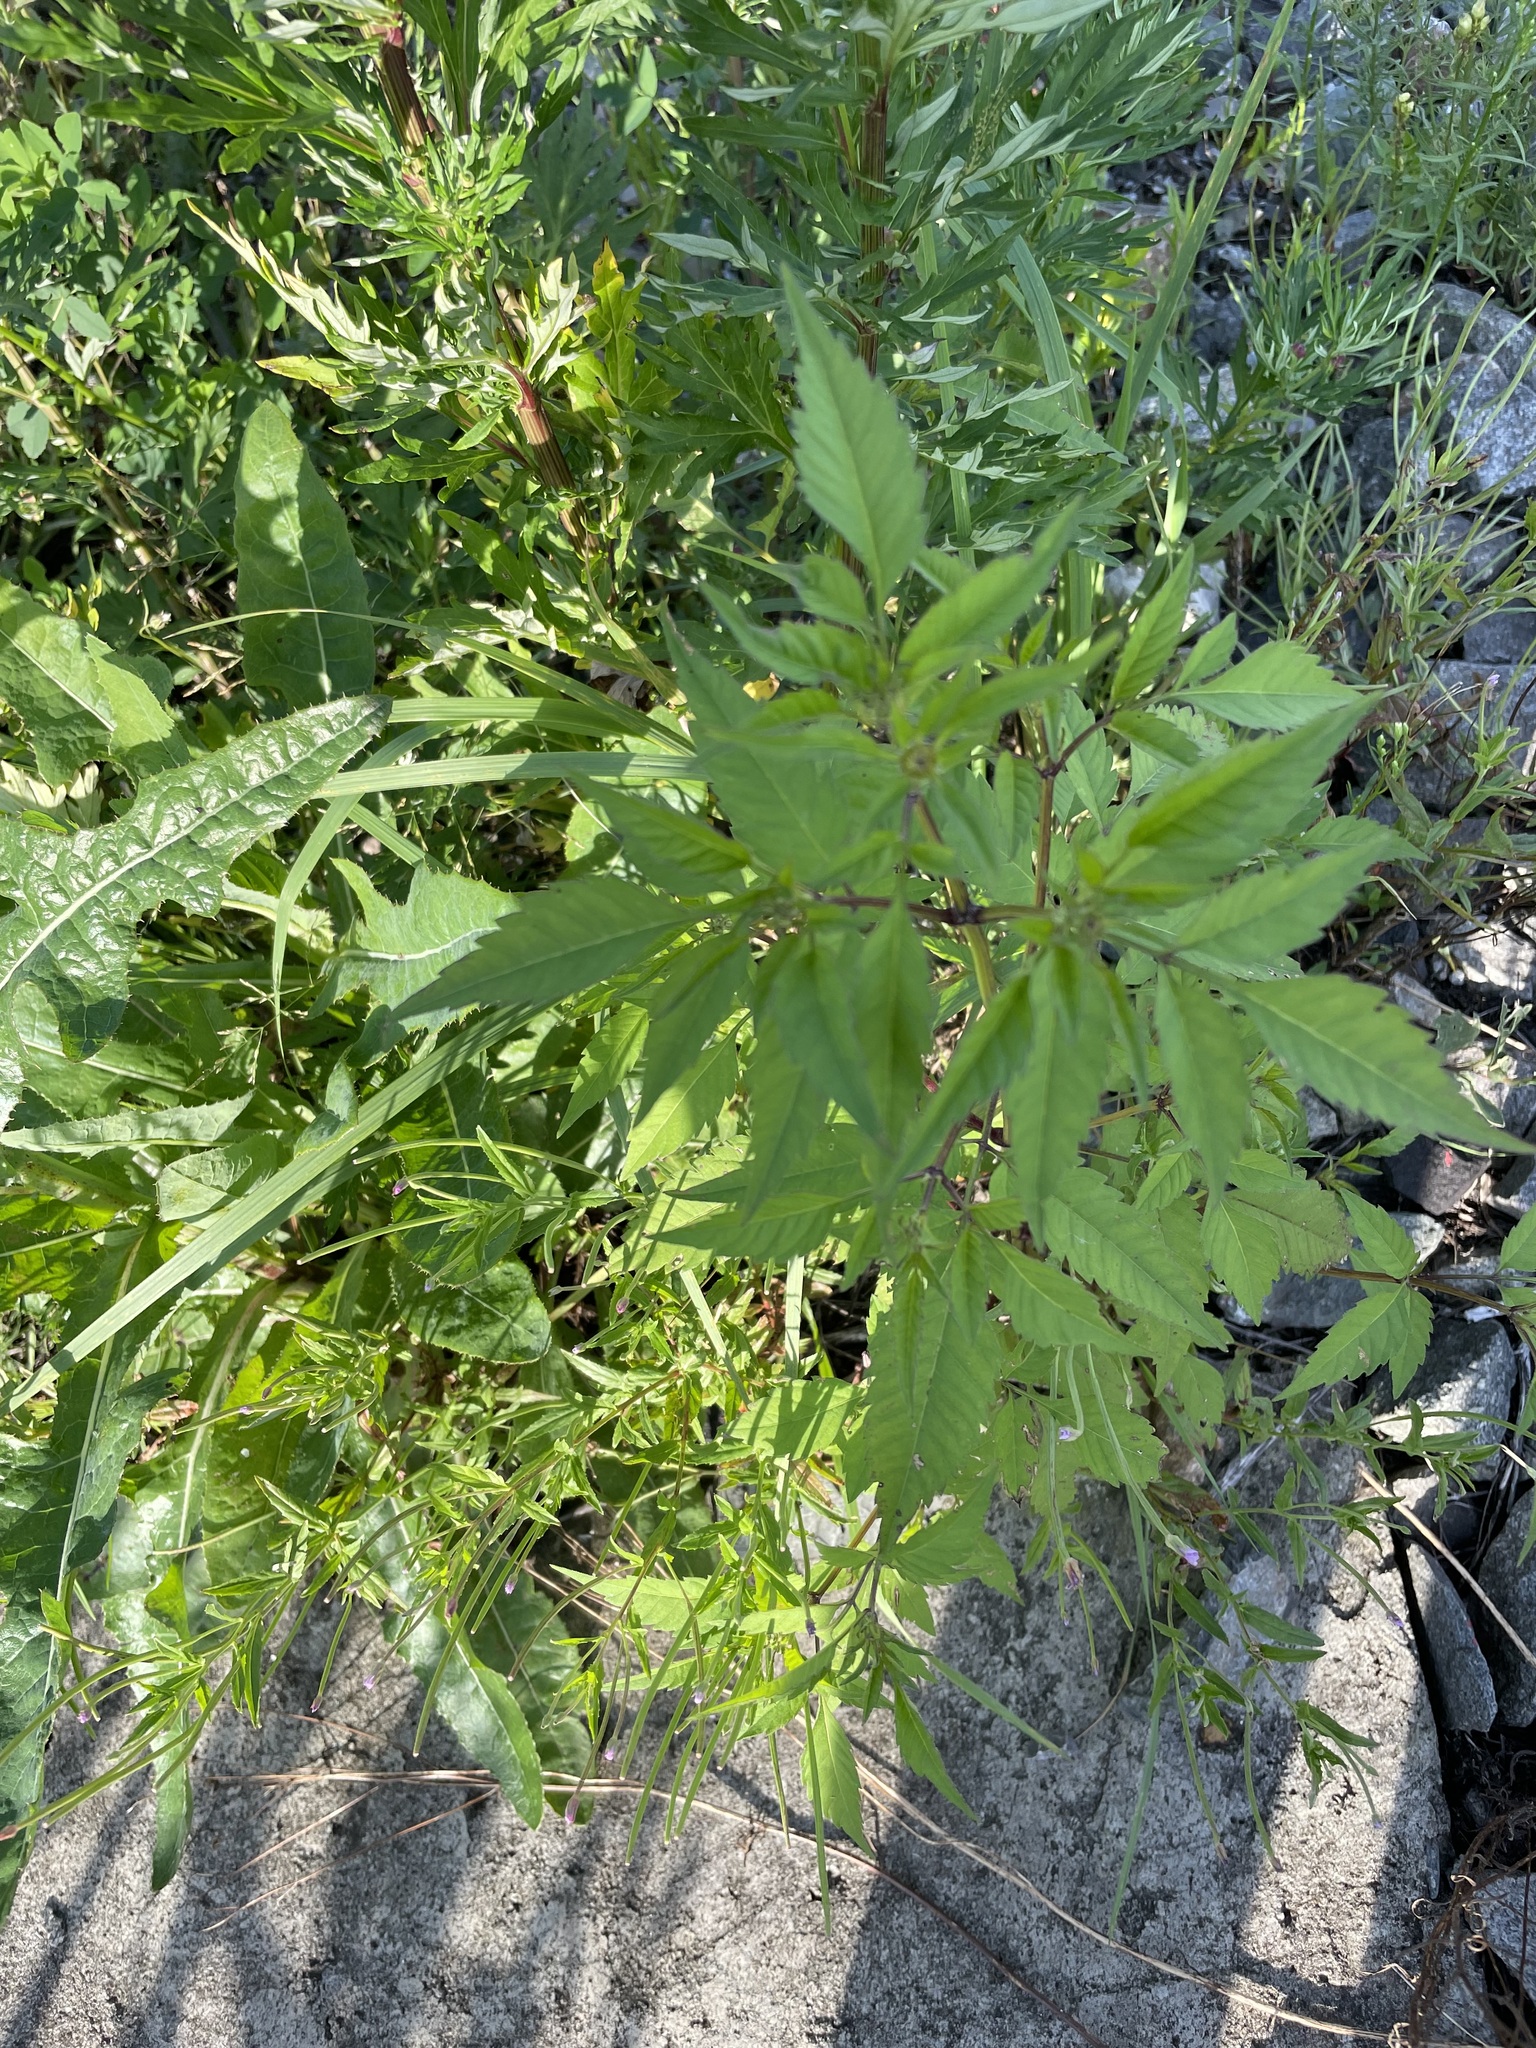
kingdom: Plantae
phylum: Tracheophyta
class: Magnoliopsida
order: Asterales
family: Asteraceae
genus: Bidens
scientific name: Bidens frondosa
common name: Beggarticks
